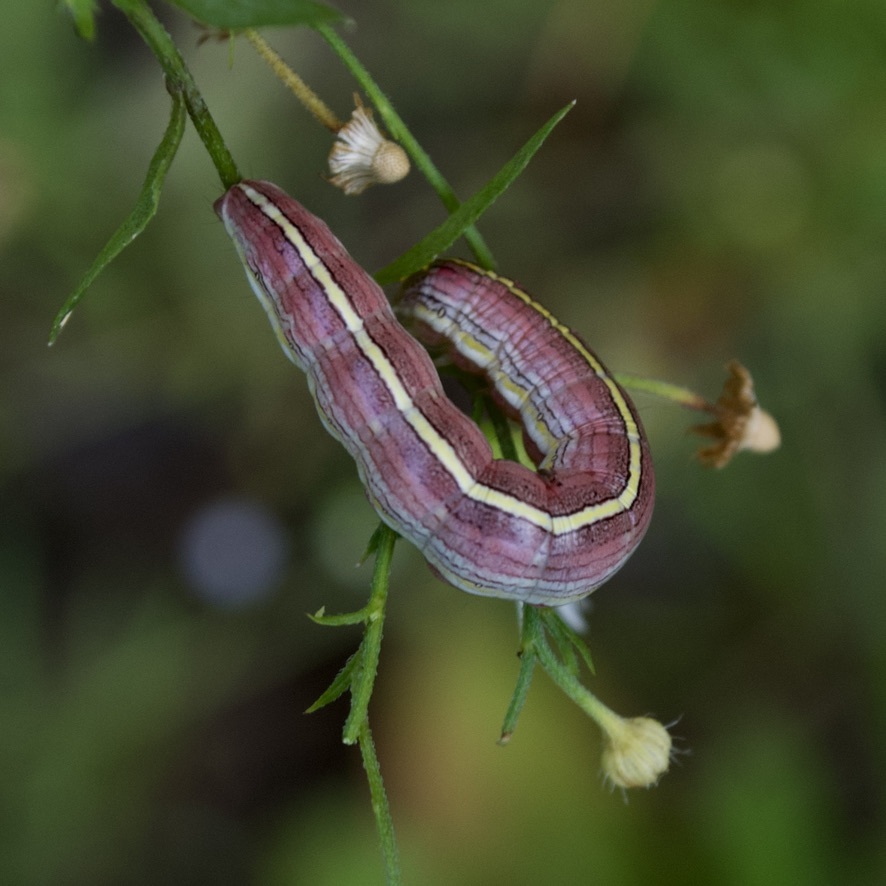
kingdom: Animalia
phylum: Arthropoda
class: Insecta
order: Lepidoptera
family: Noctuidae
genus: Cucullia
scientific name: Cucullia florea
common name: Gray hooded owlet
